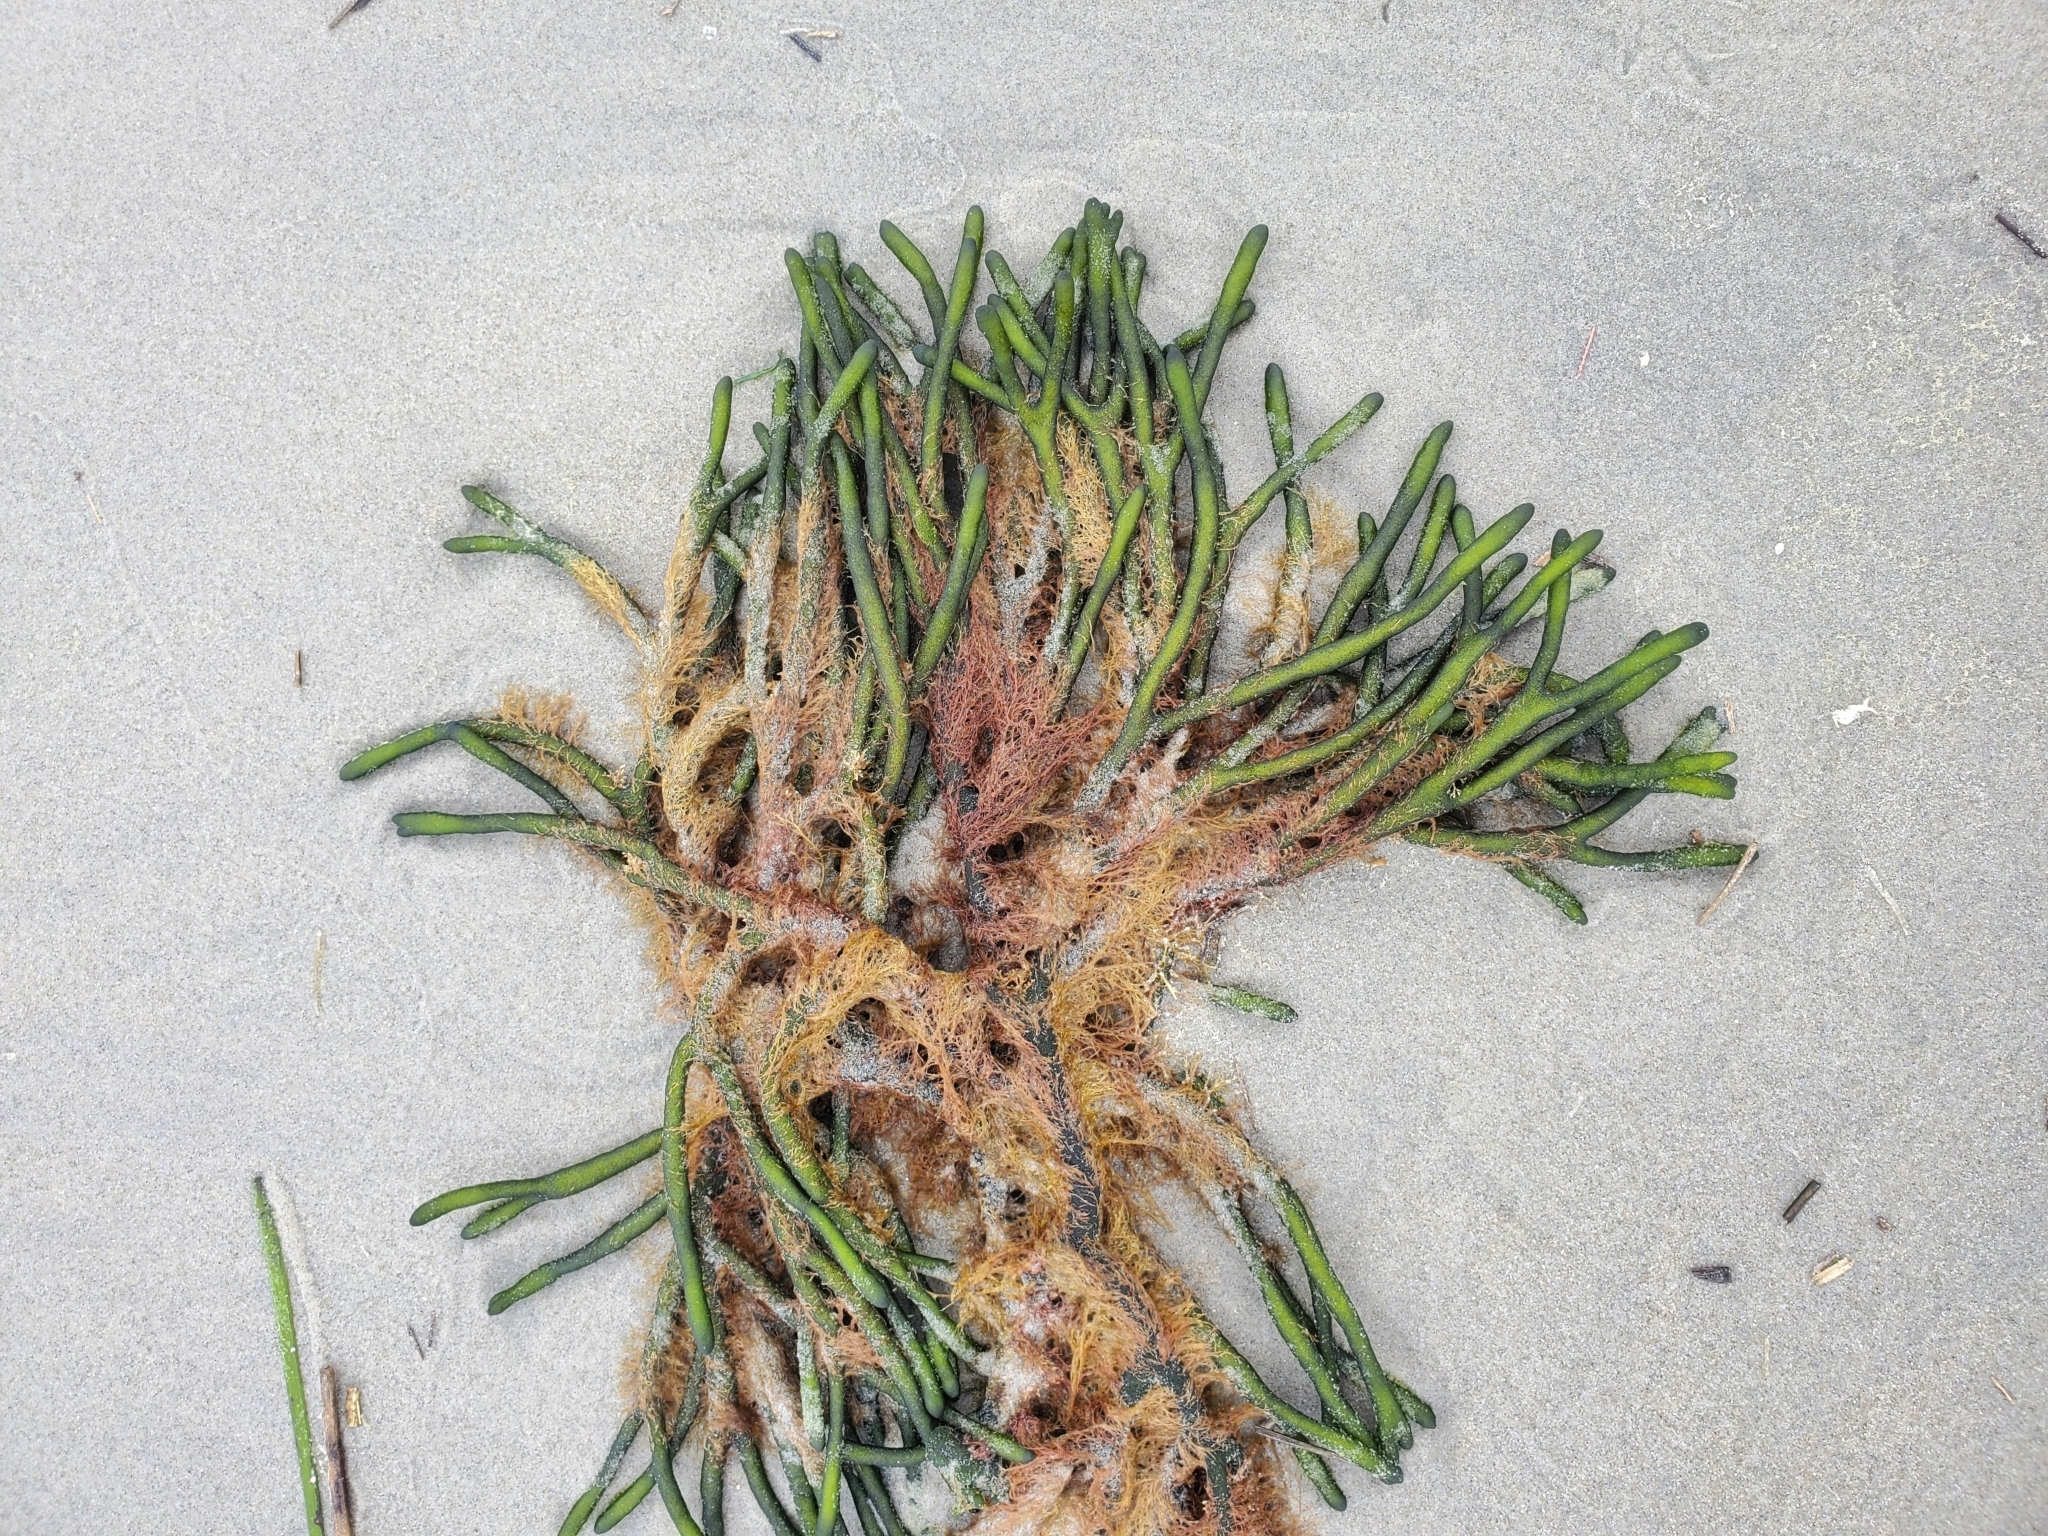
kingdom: Plantae
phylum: Chlorophyta
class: Ulvophyceae
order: Bryopsidales
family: Codiaceae
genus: Codium
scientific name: Codium fragile
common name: Dead man's fingers
